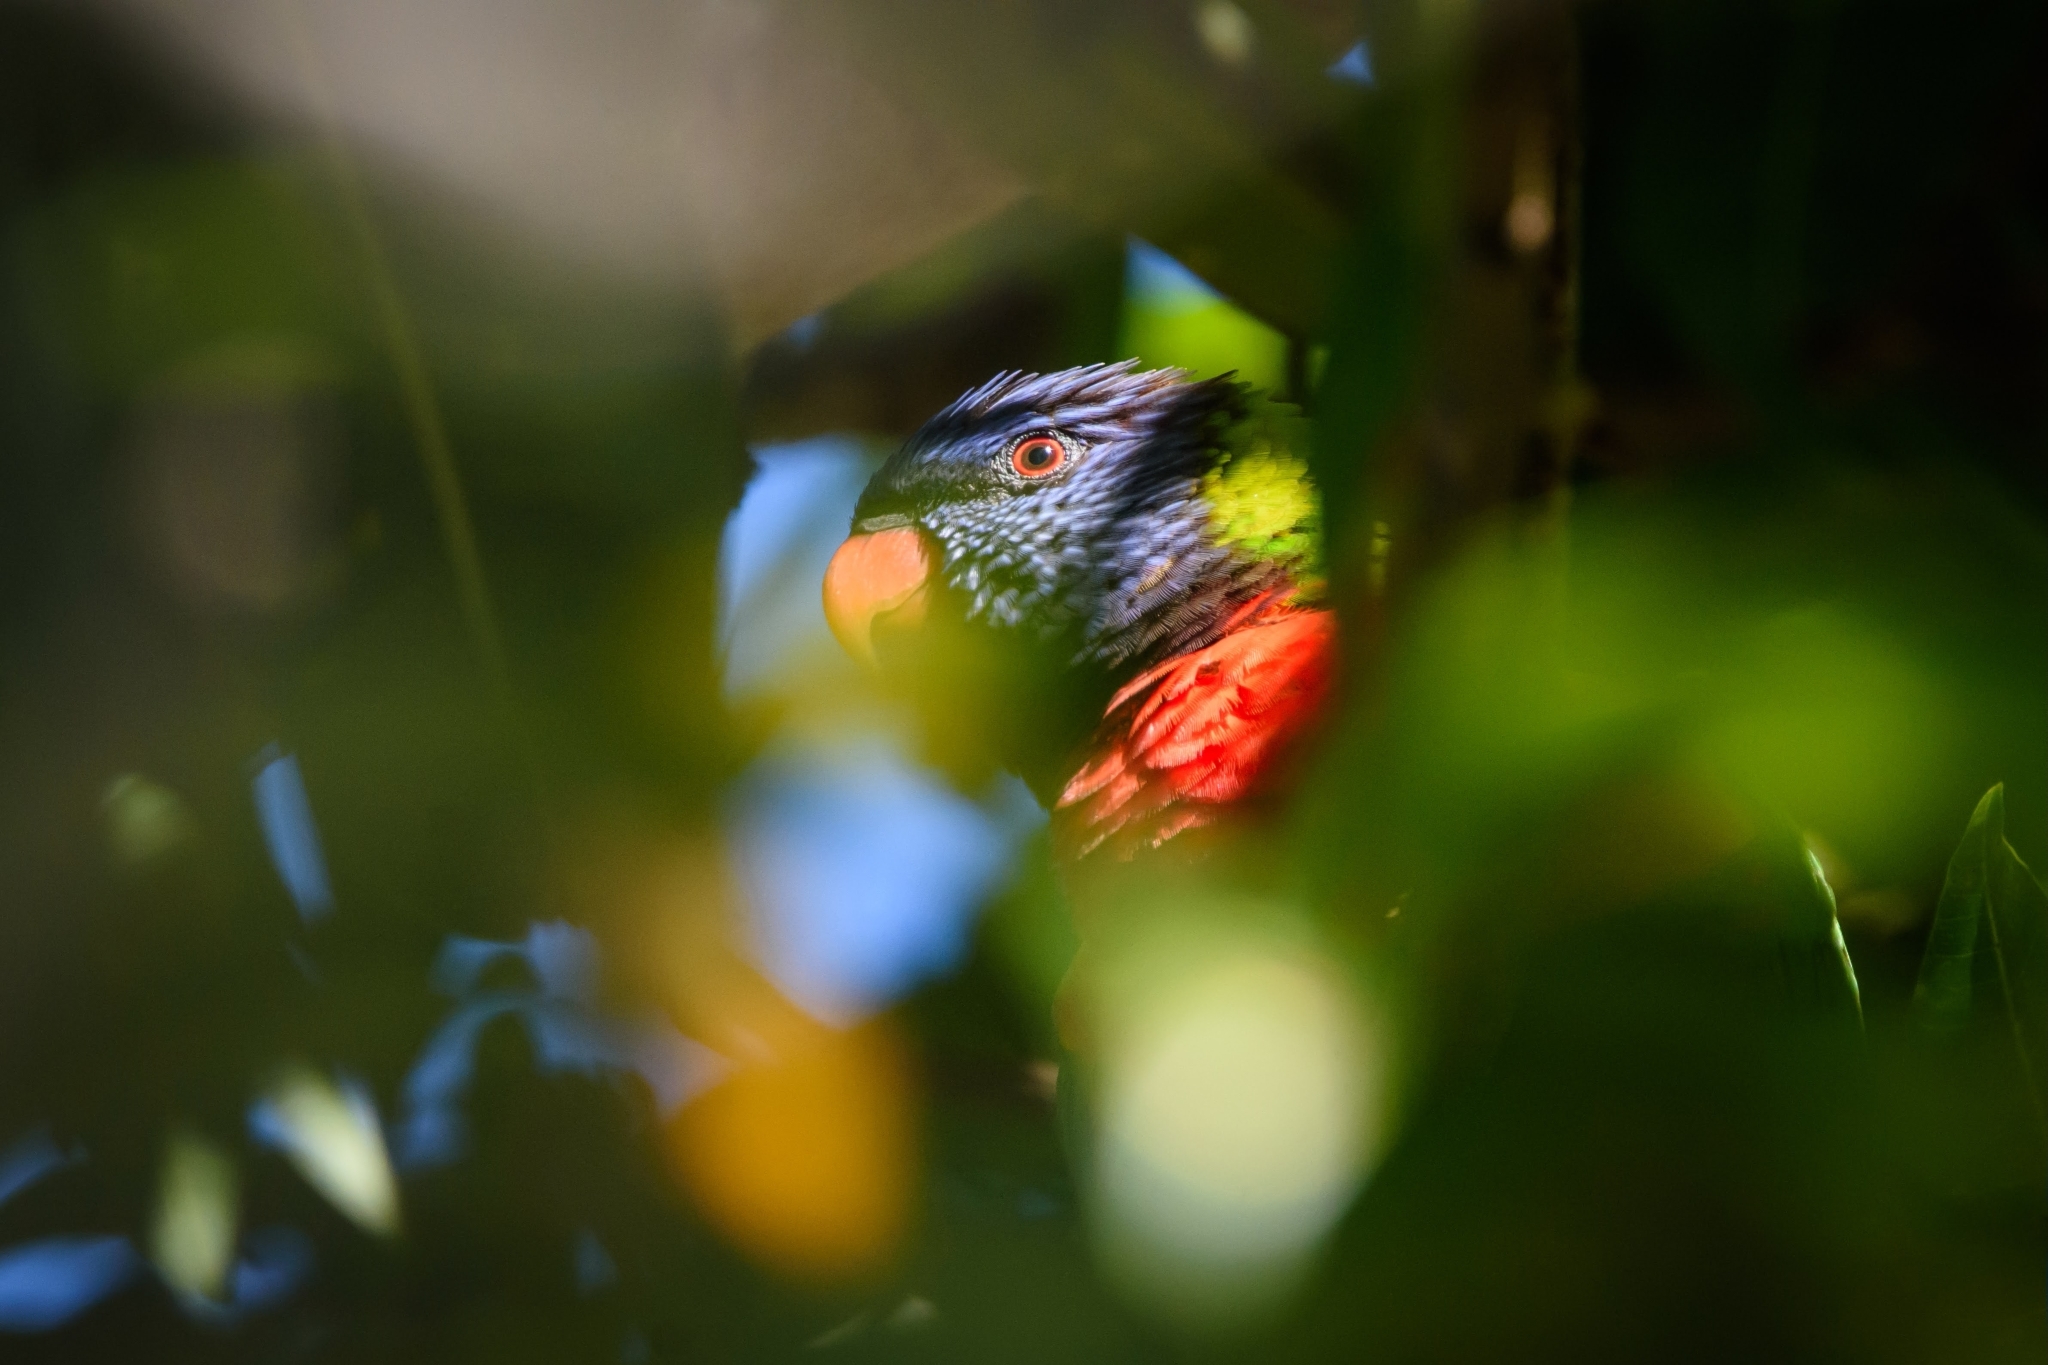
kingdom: Animalia
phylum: Chordata
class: Aves
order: Psittaciformes
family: Psittacidae
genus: Trichoglossus
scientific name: Trichoglossus haematodus
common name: Coconut lorikeet
